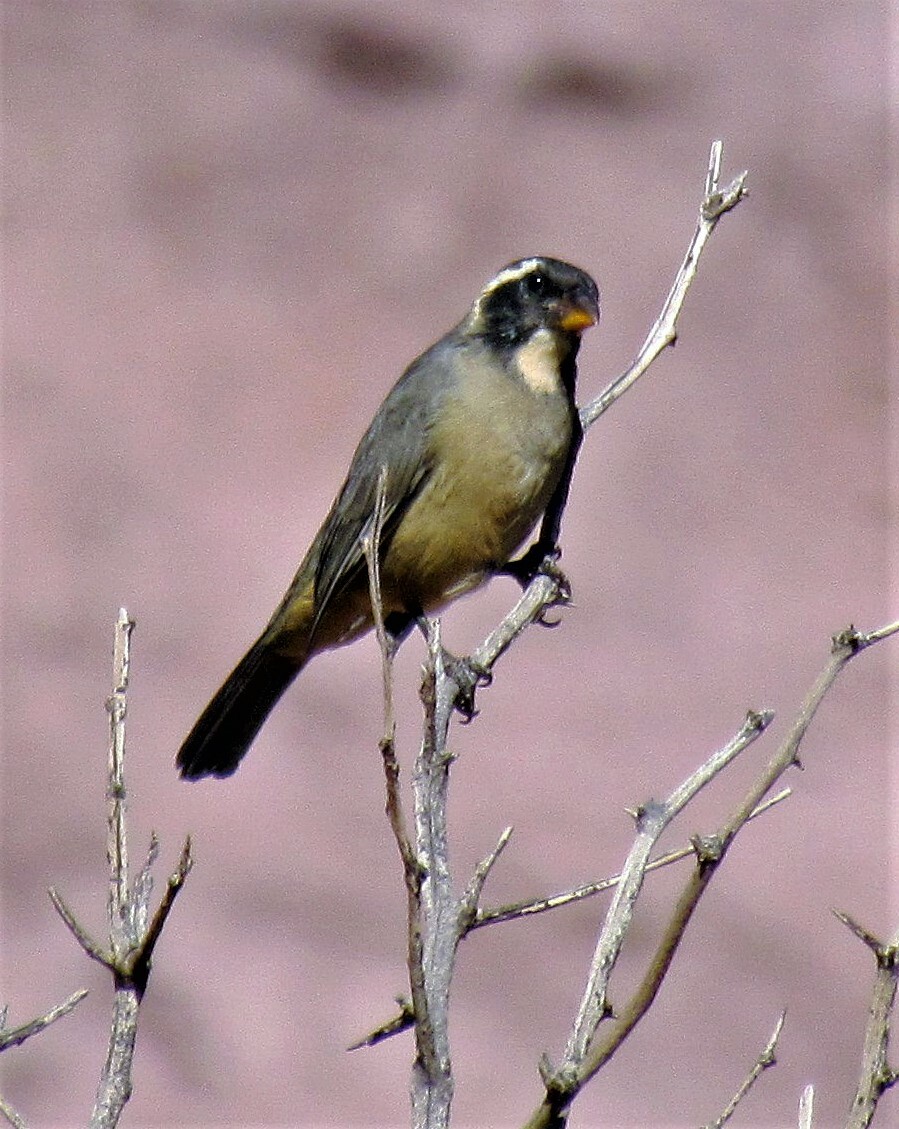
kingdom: Animalia
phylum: Chordata
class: Aves
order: Passeriformes
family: Thraupidae
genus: Saltator
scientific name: Saltator aurantiirostris
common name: Golden-billed saltator
